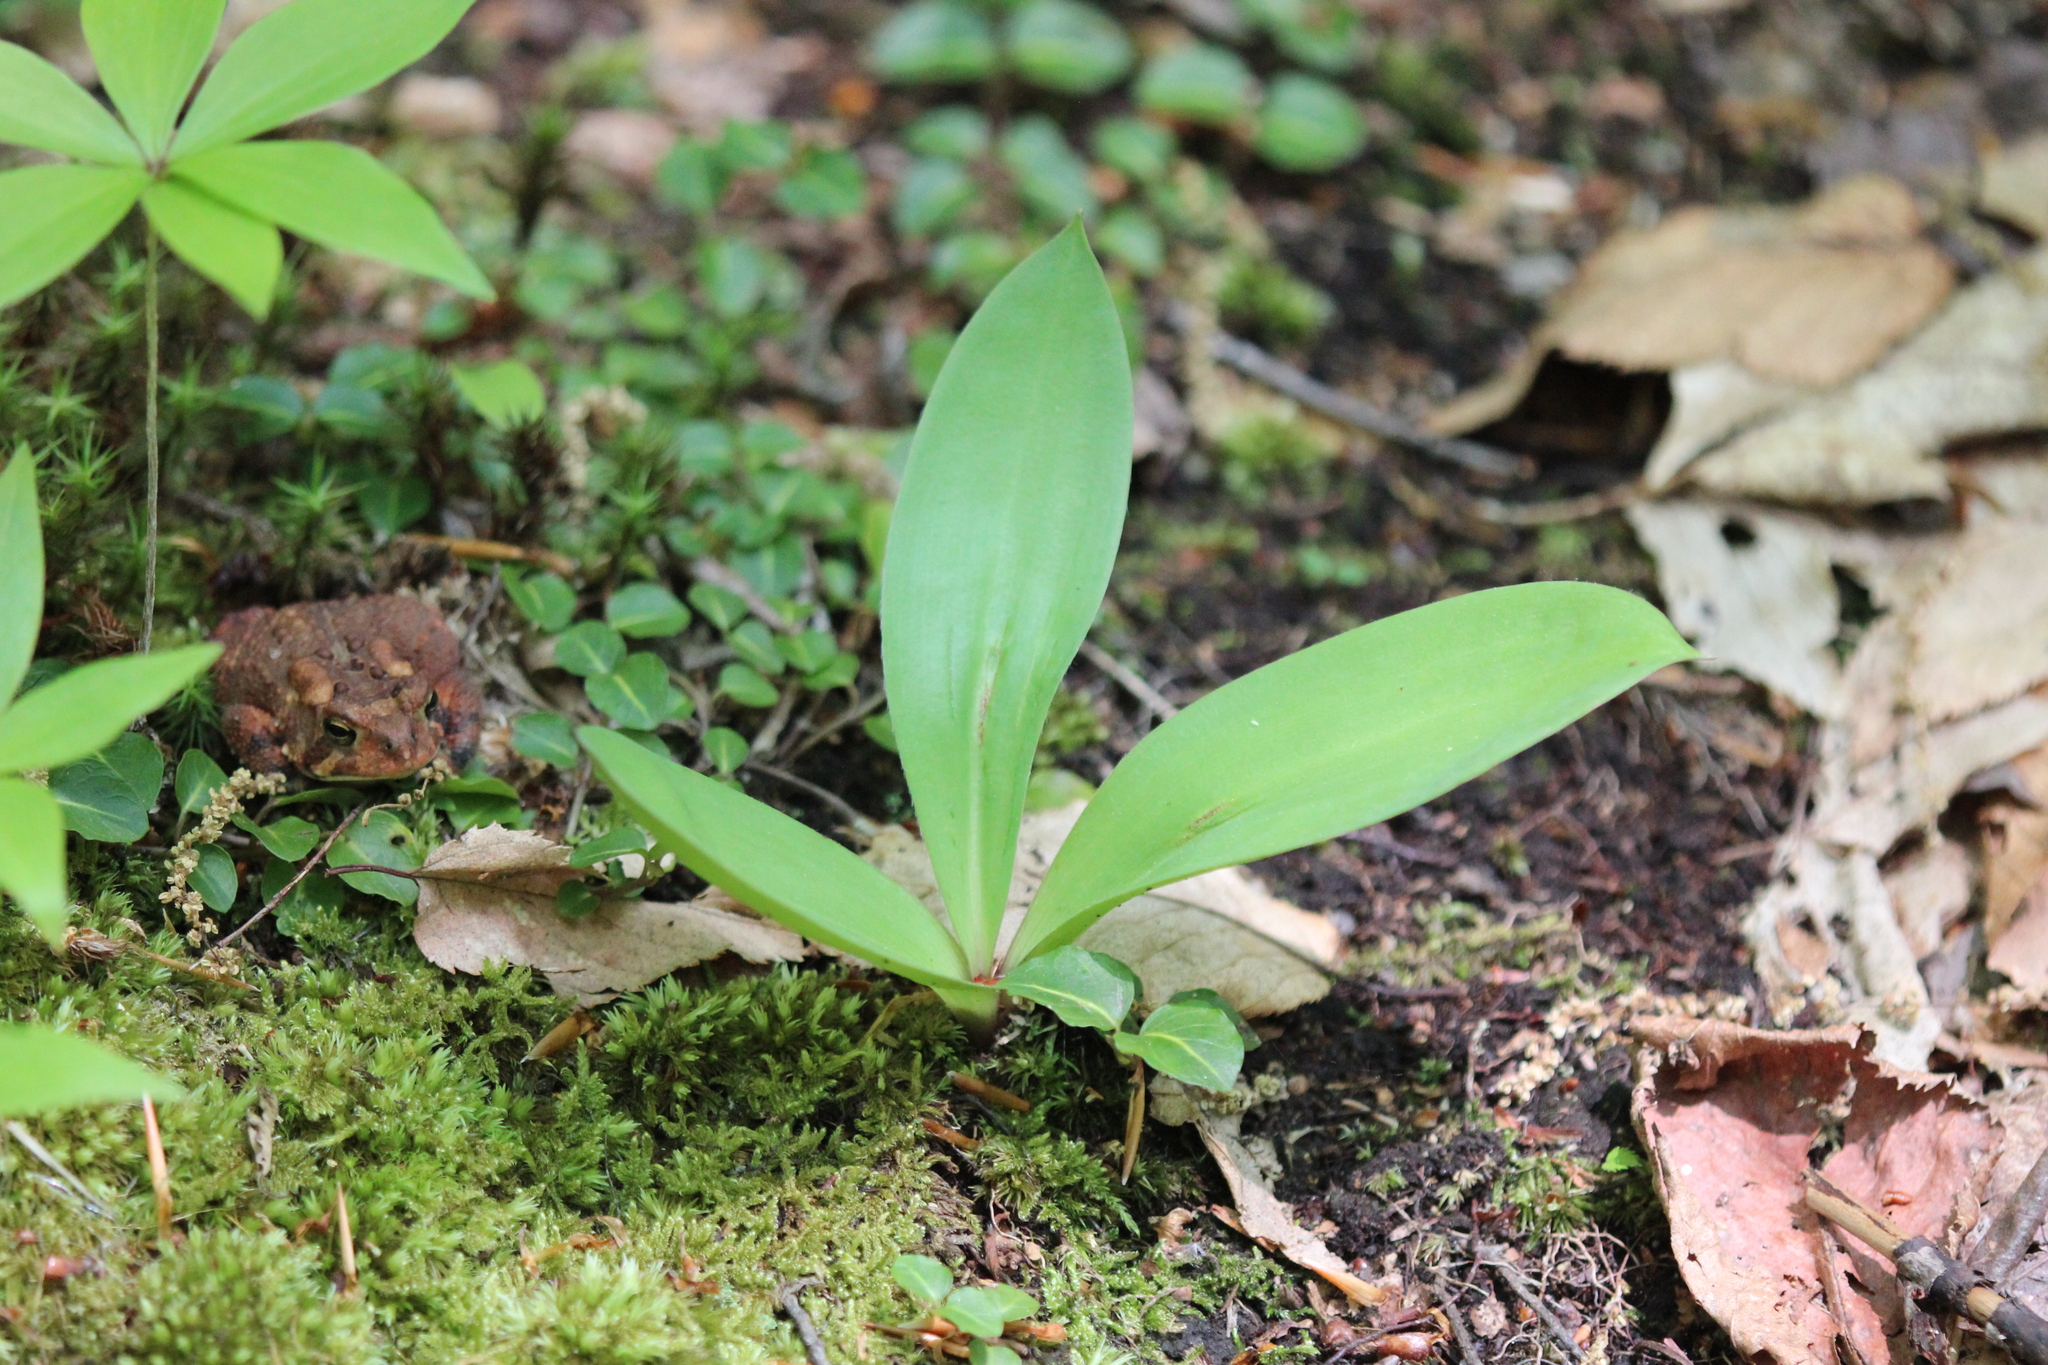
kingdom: Plantae
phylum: Tracheophyta
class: Liliopsida
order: Liliales
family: Liliaceae
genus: Clintonia
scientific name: Clintonia borealis
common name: Yellow clintonia
